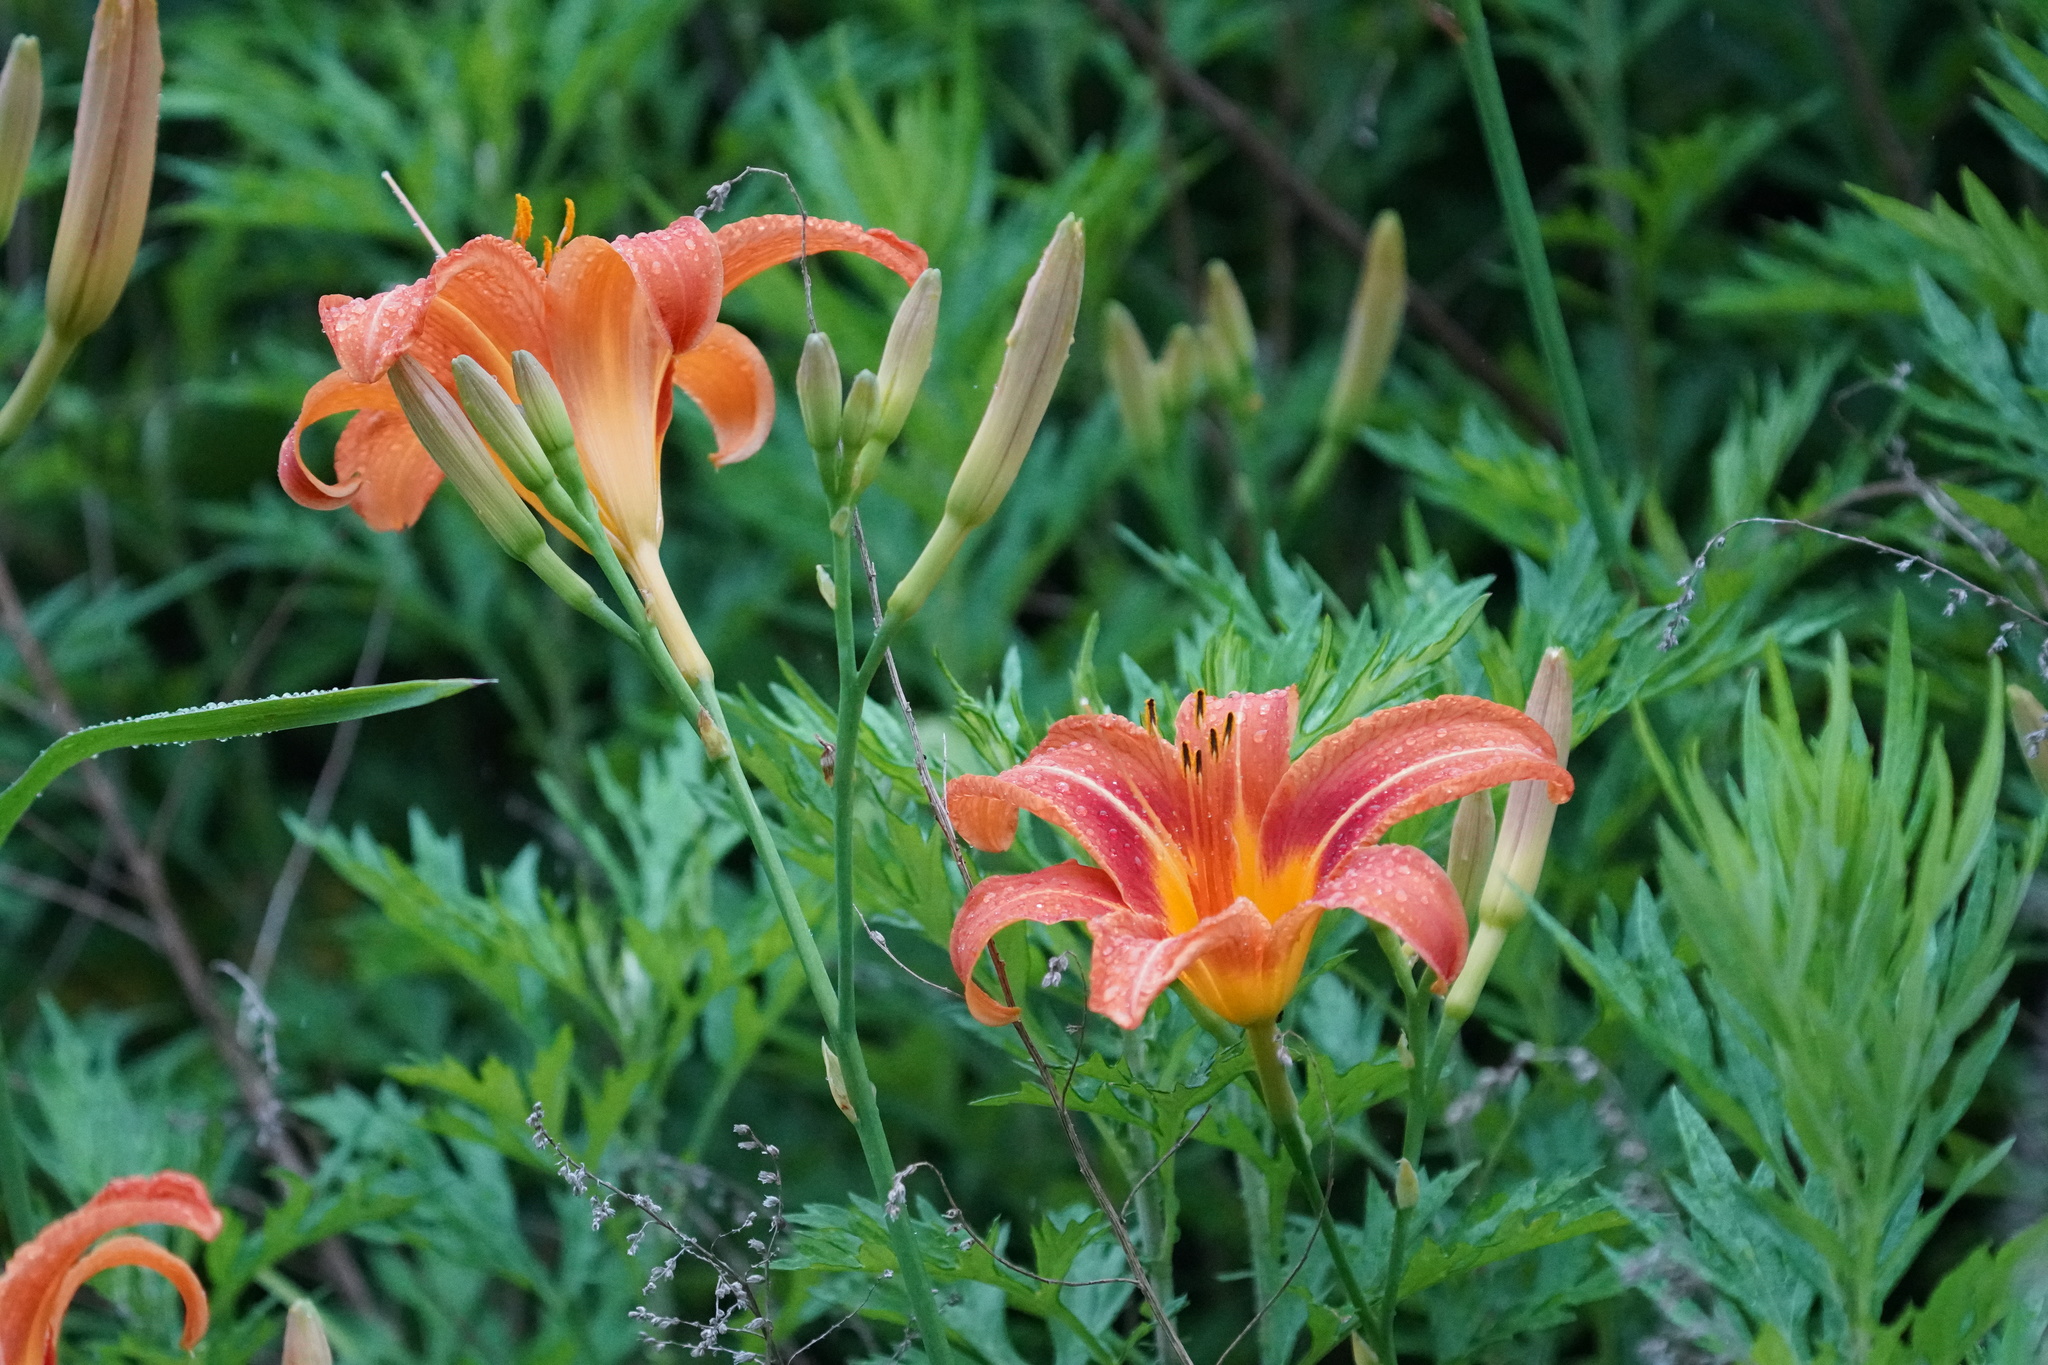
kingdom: Plantae
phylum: Tracheophyta
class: Liliopsida
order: Asparagales
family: Asphodelaceae
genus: Hemerocallis
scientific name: Hemerocallis fulva
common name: Orange day-lily
